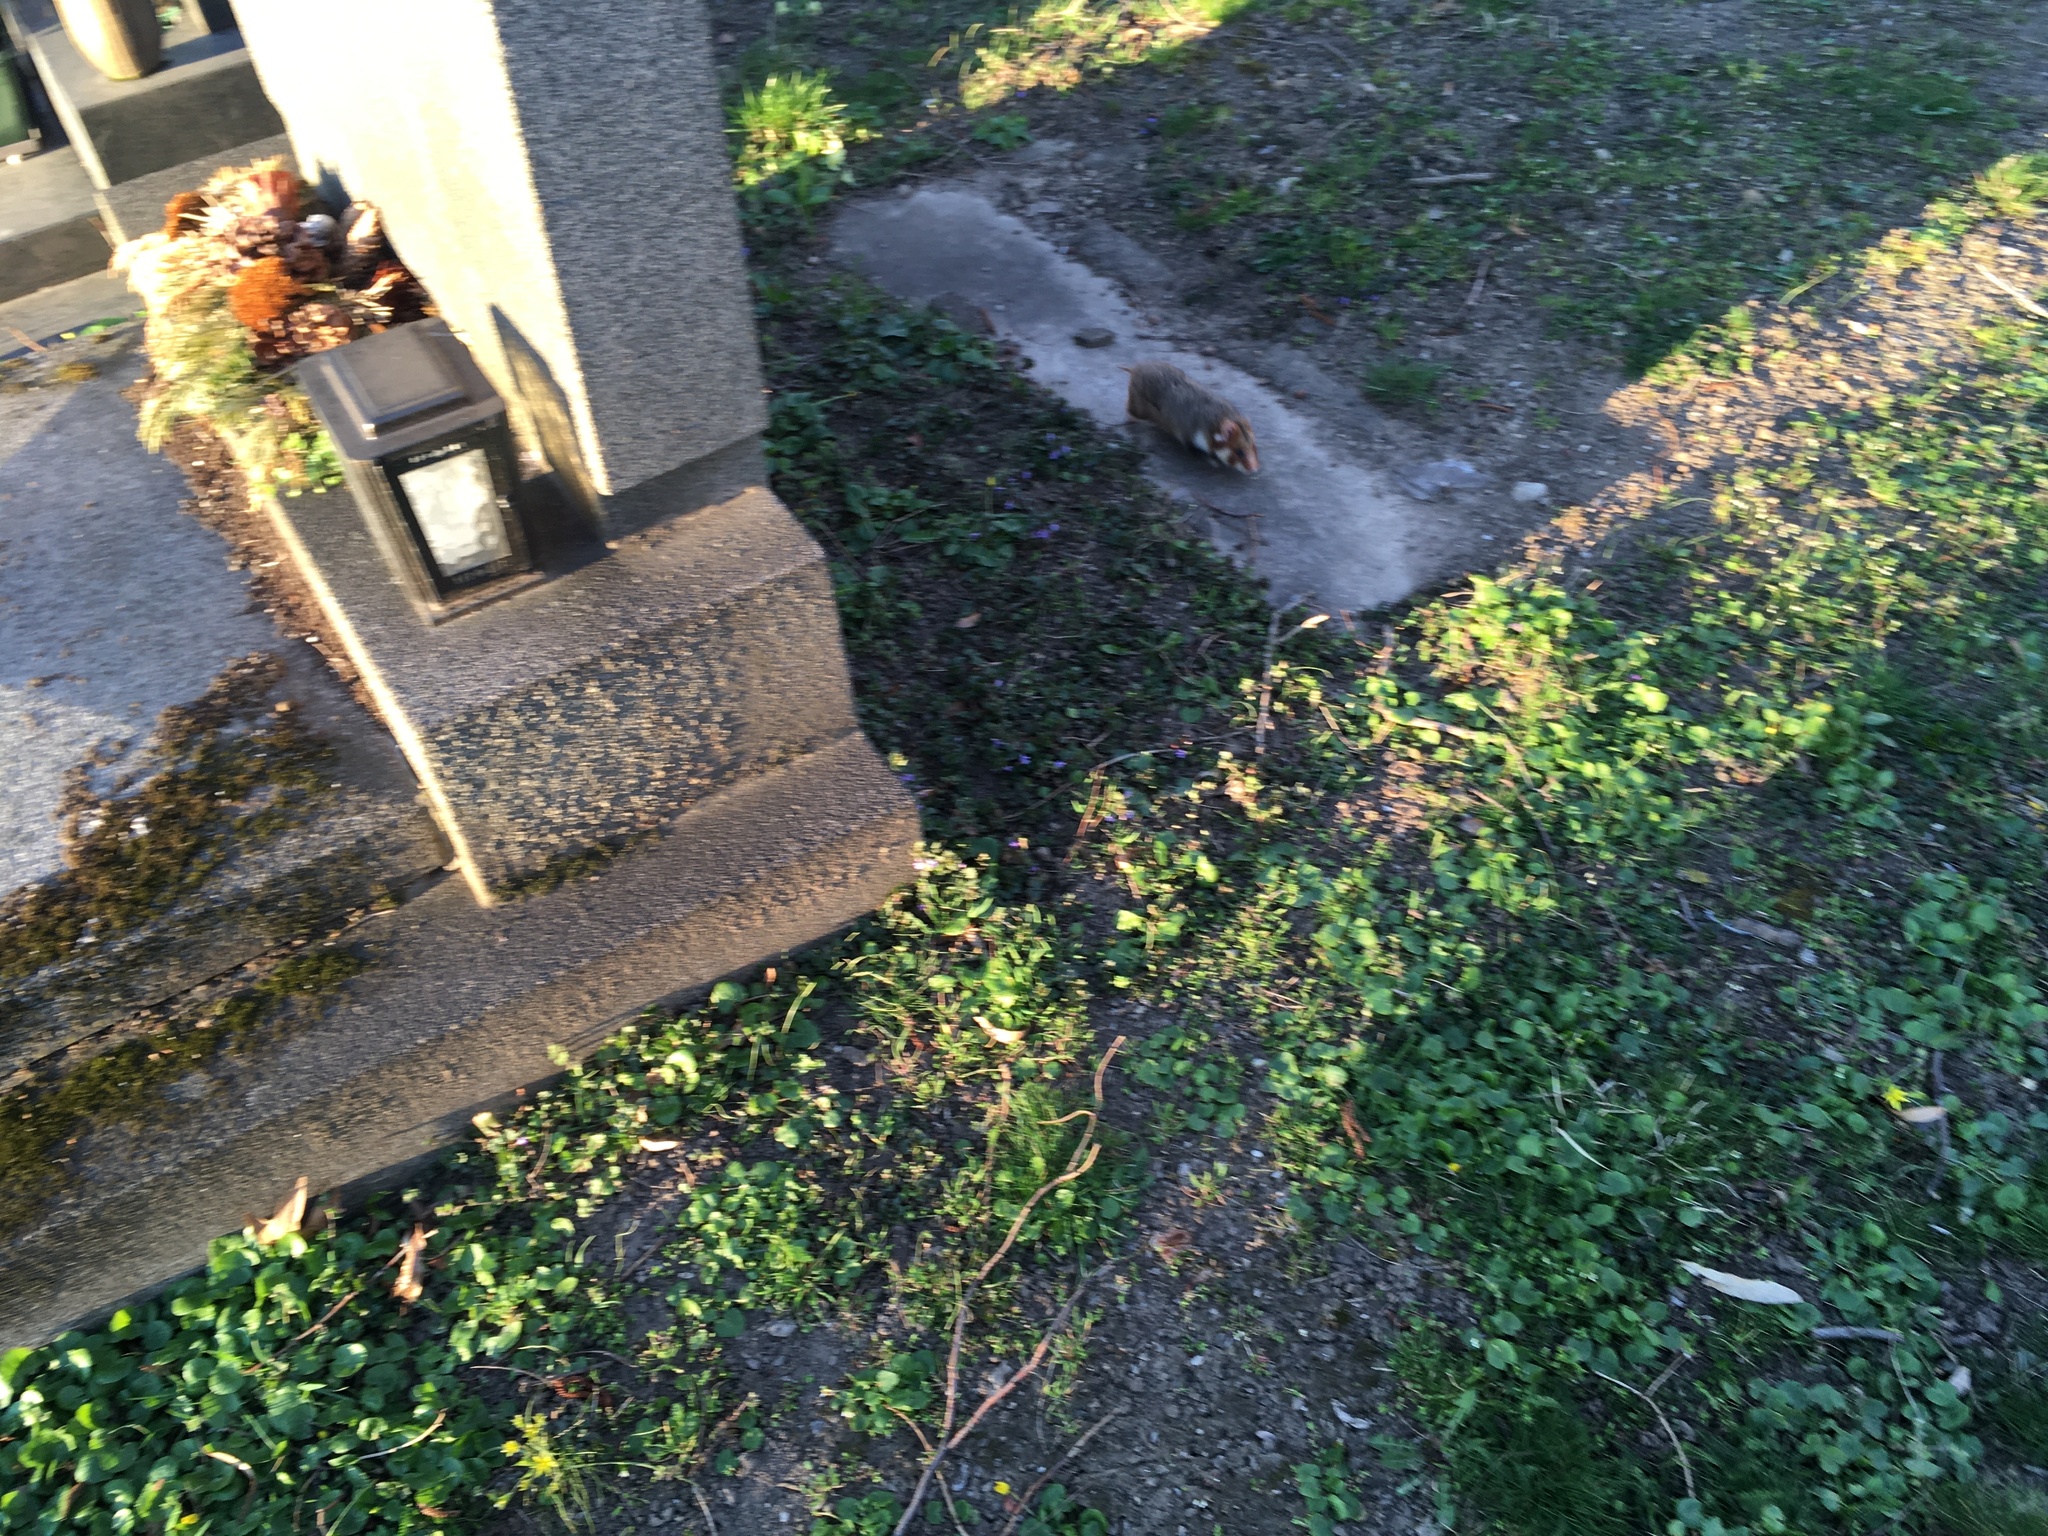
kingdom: Animalia
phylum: Chordata
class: Mammalia
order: Rodentia
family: Cricetidae
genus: Cricetus
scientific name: Cricetus cricetus
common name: Common hamster
